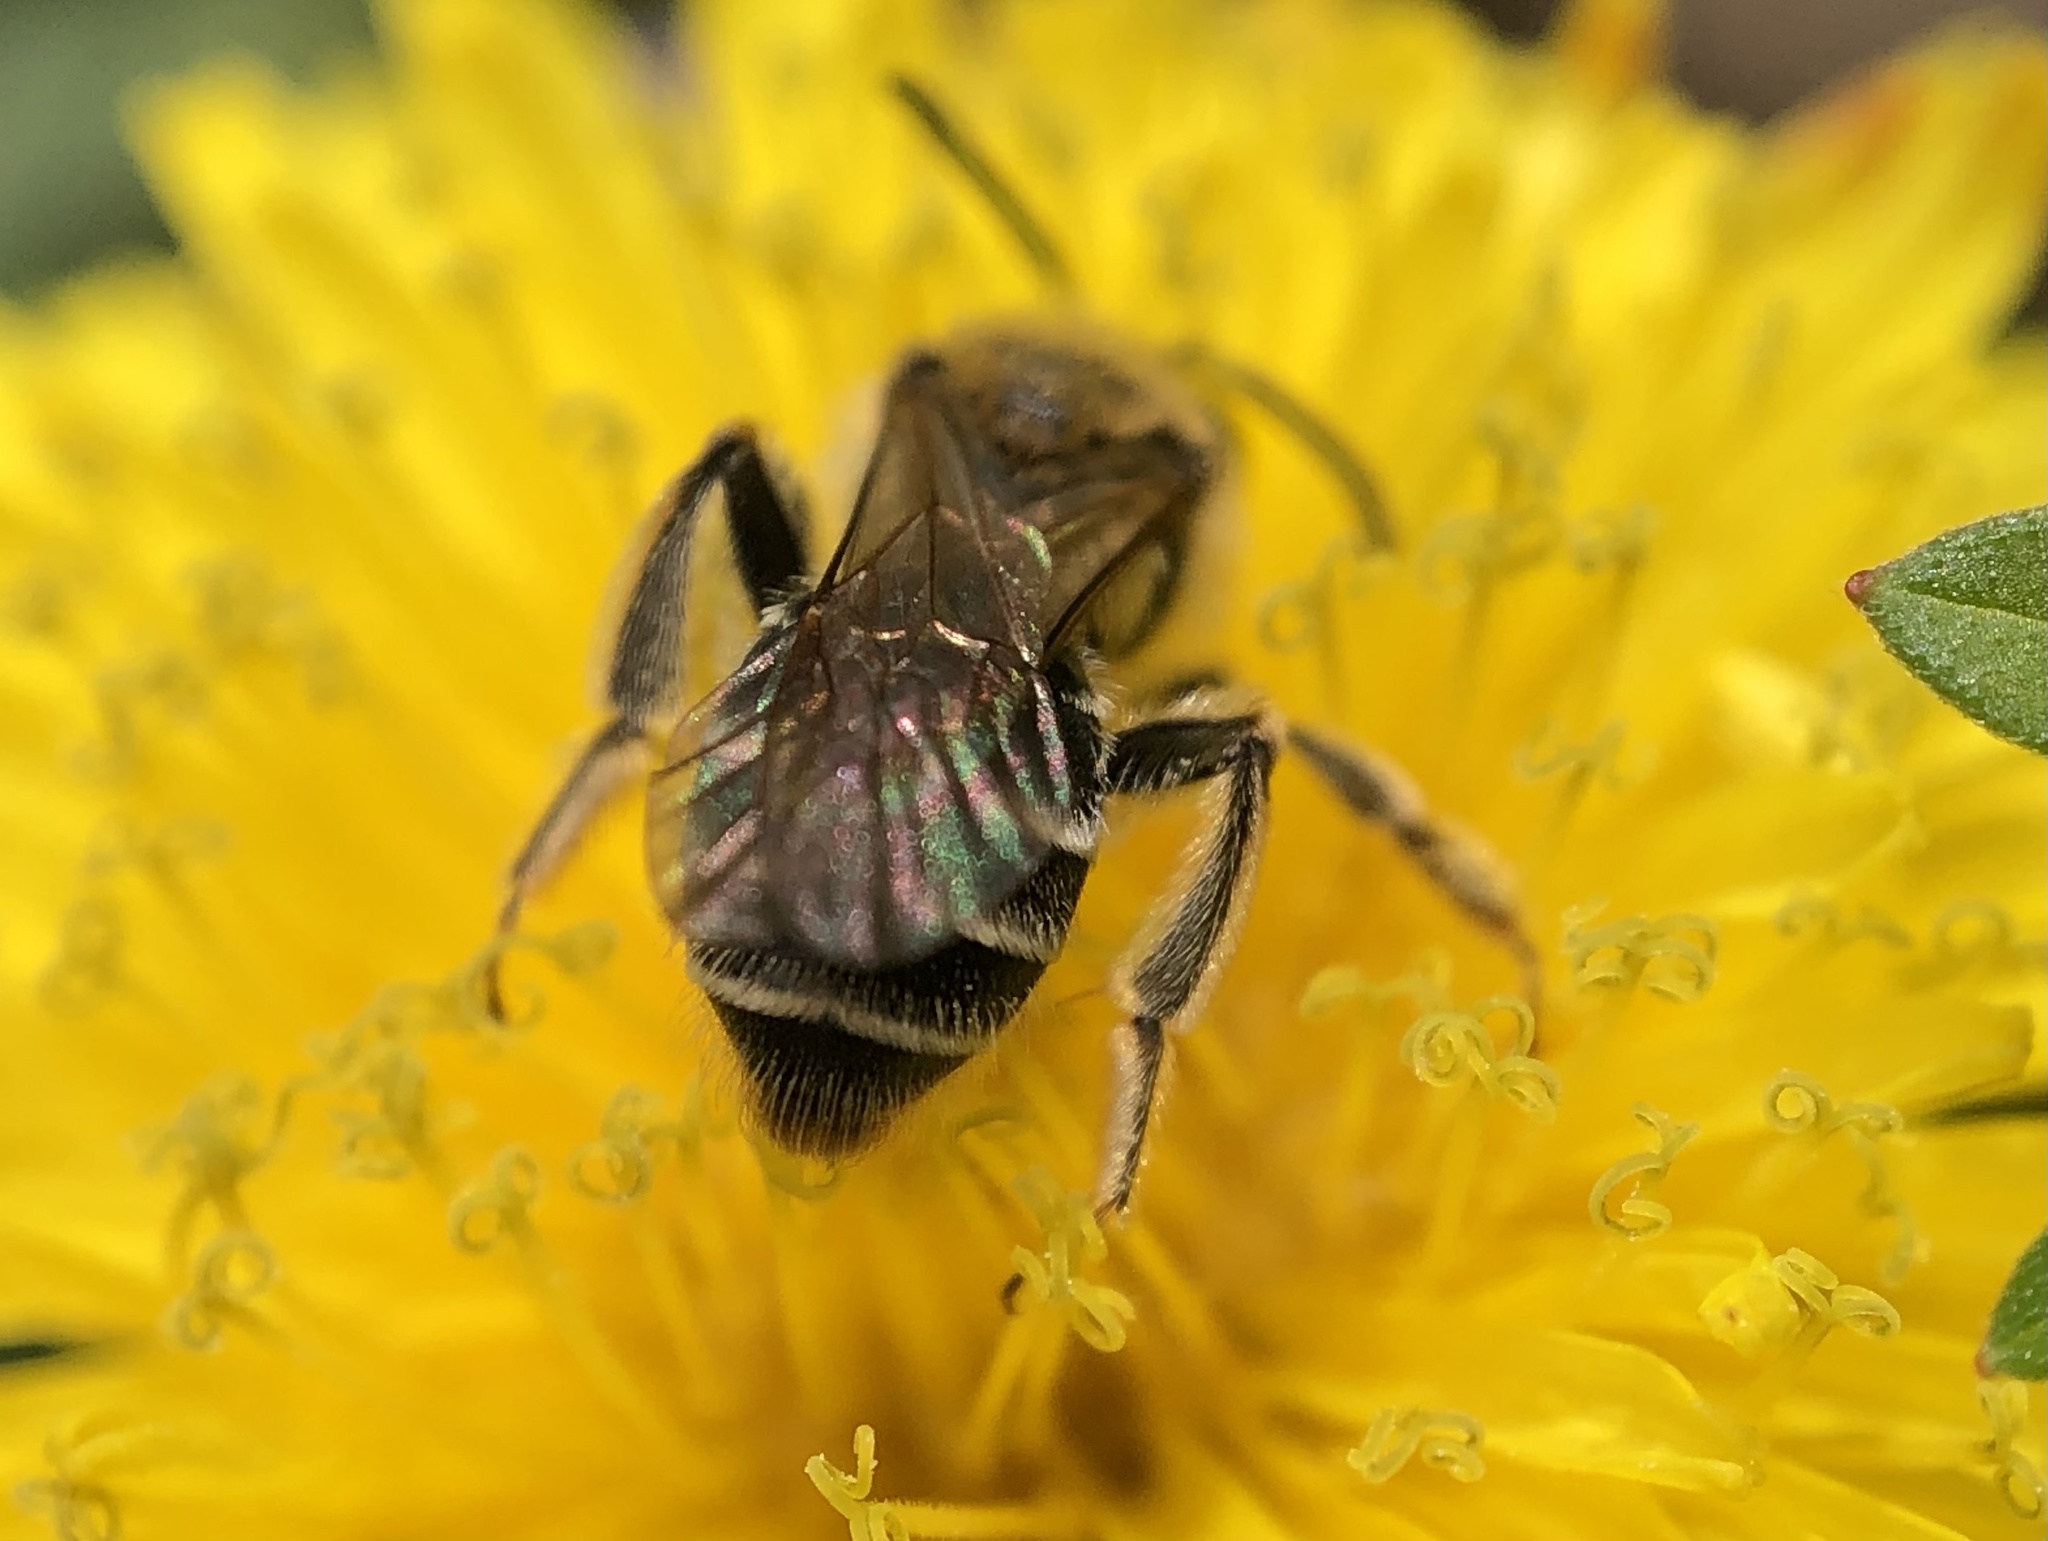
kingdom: Animalia
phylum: Arthropoda
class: Insecta
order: Hymenoptera
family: Andrenidae
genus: Andrena
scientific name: Andrena nasonii
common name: Nason's mining bee
